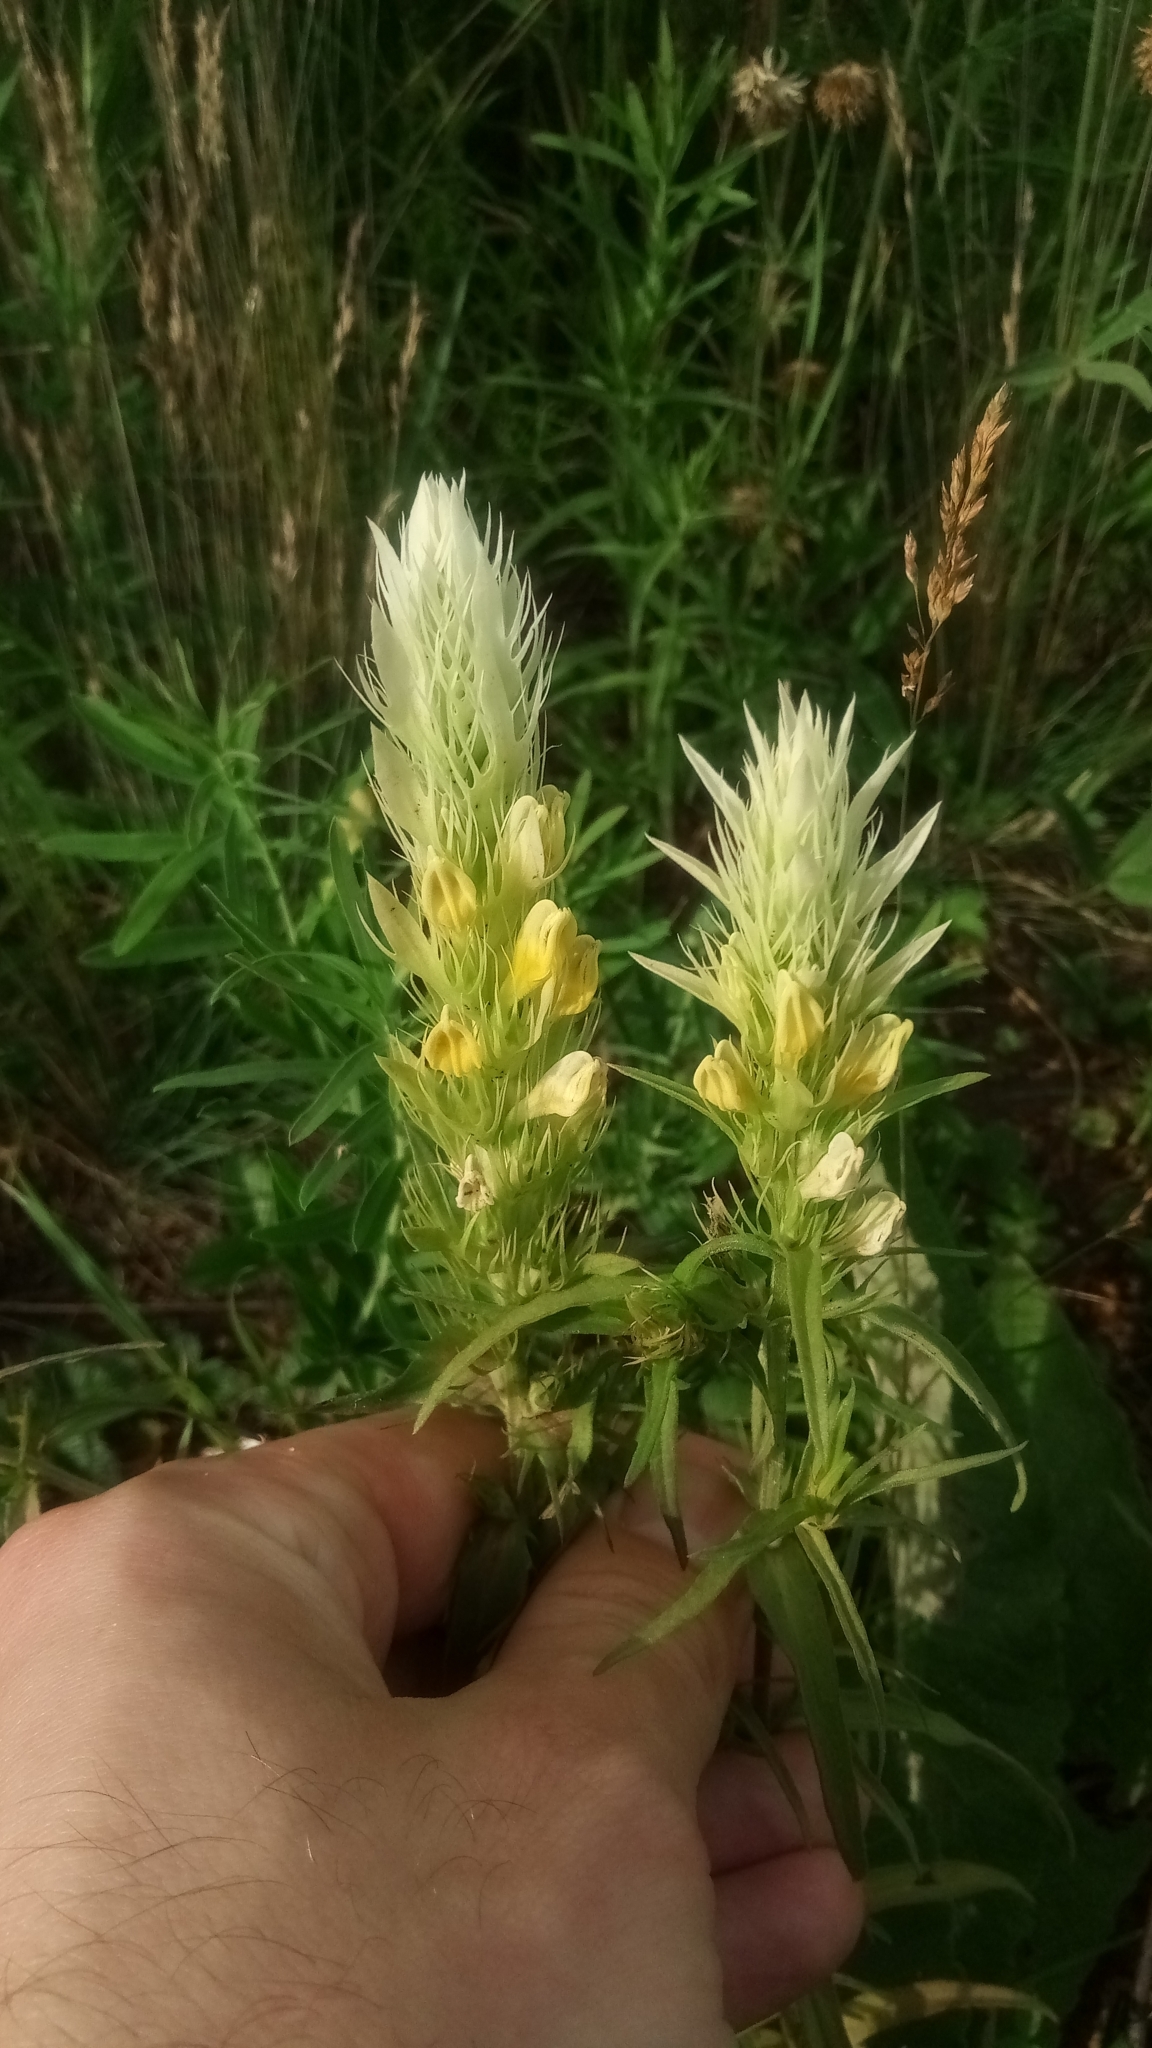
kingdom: Plantae
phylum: Tracheophyta
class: Magnoliopsida
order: Lamiales
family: Orobanchaceae
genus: Melampyrum
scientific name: Melampyrum arvense
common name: Field cow-wheat
